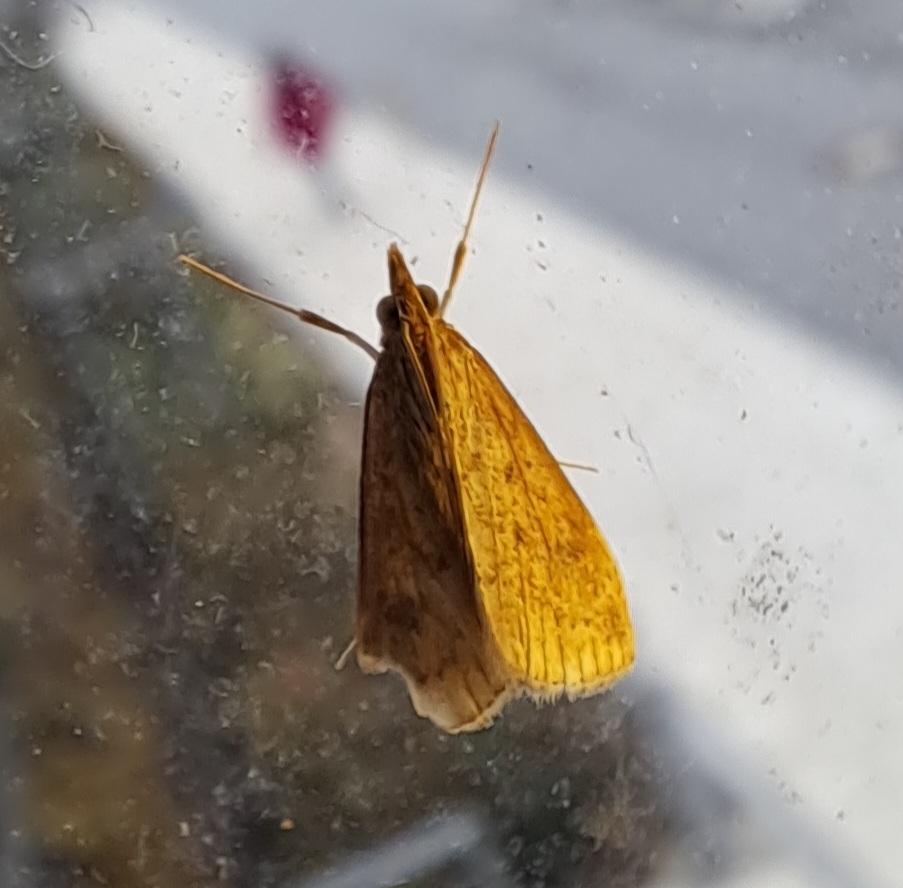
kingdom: Animalia
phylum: Arthropoda
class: Insecta
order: Lepidoptera
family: Crambidae
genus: Udea
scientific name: Udea ferrugalis
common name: Rusty dot
